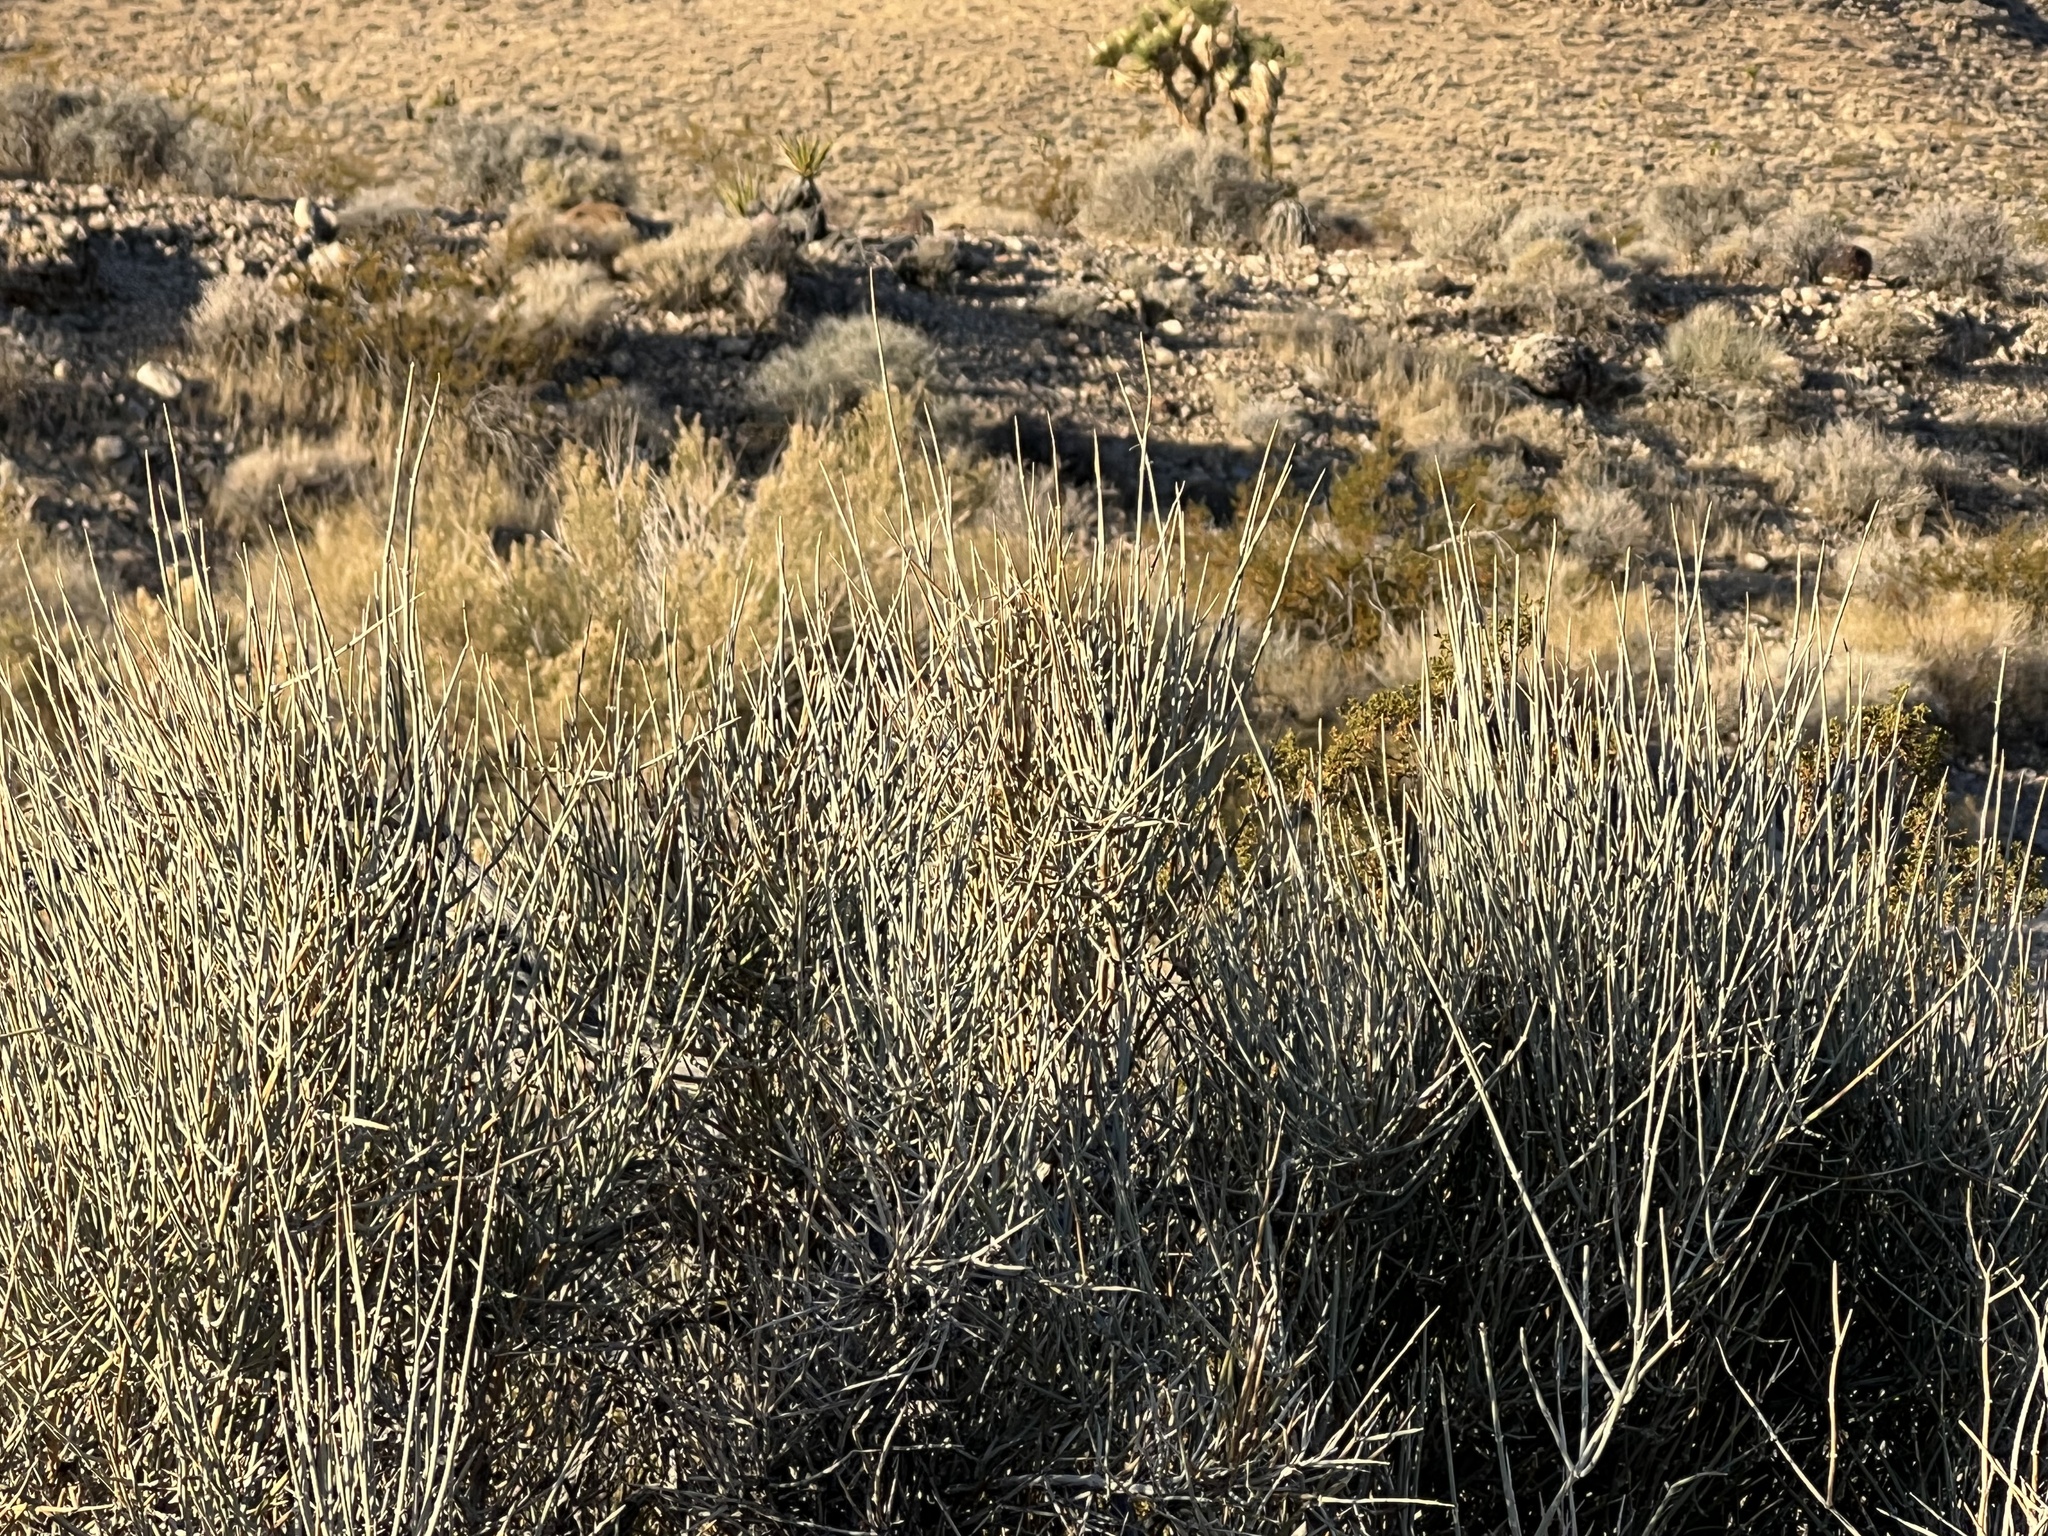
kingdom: Plantae
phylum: Tracheophyta
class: Gnetopsida
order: Ephedrales
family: Ephedraceae
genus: Ephedra
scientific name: Ephedra nevadensis
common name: Gray ephedra
